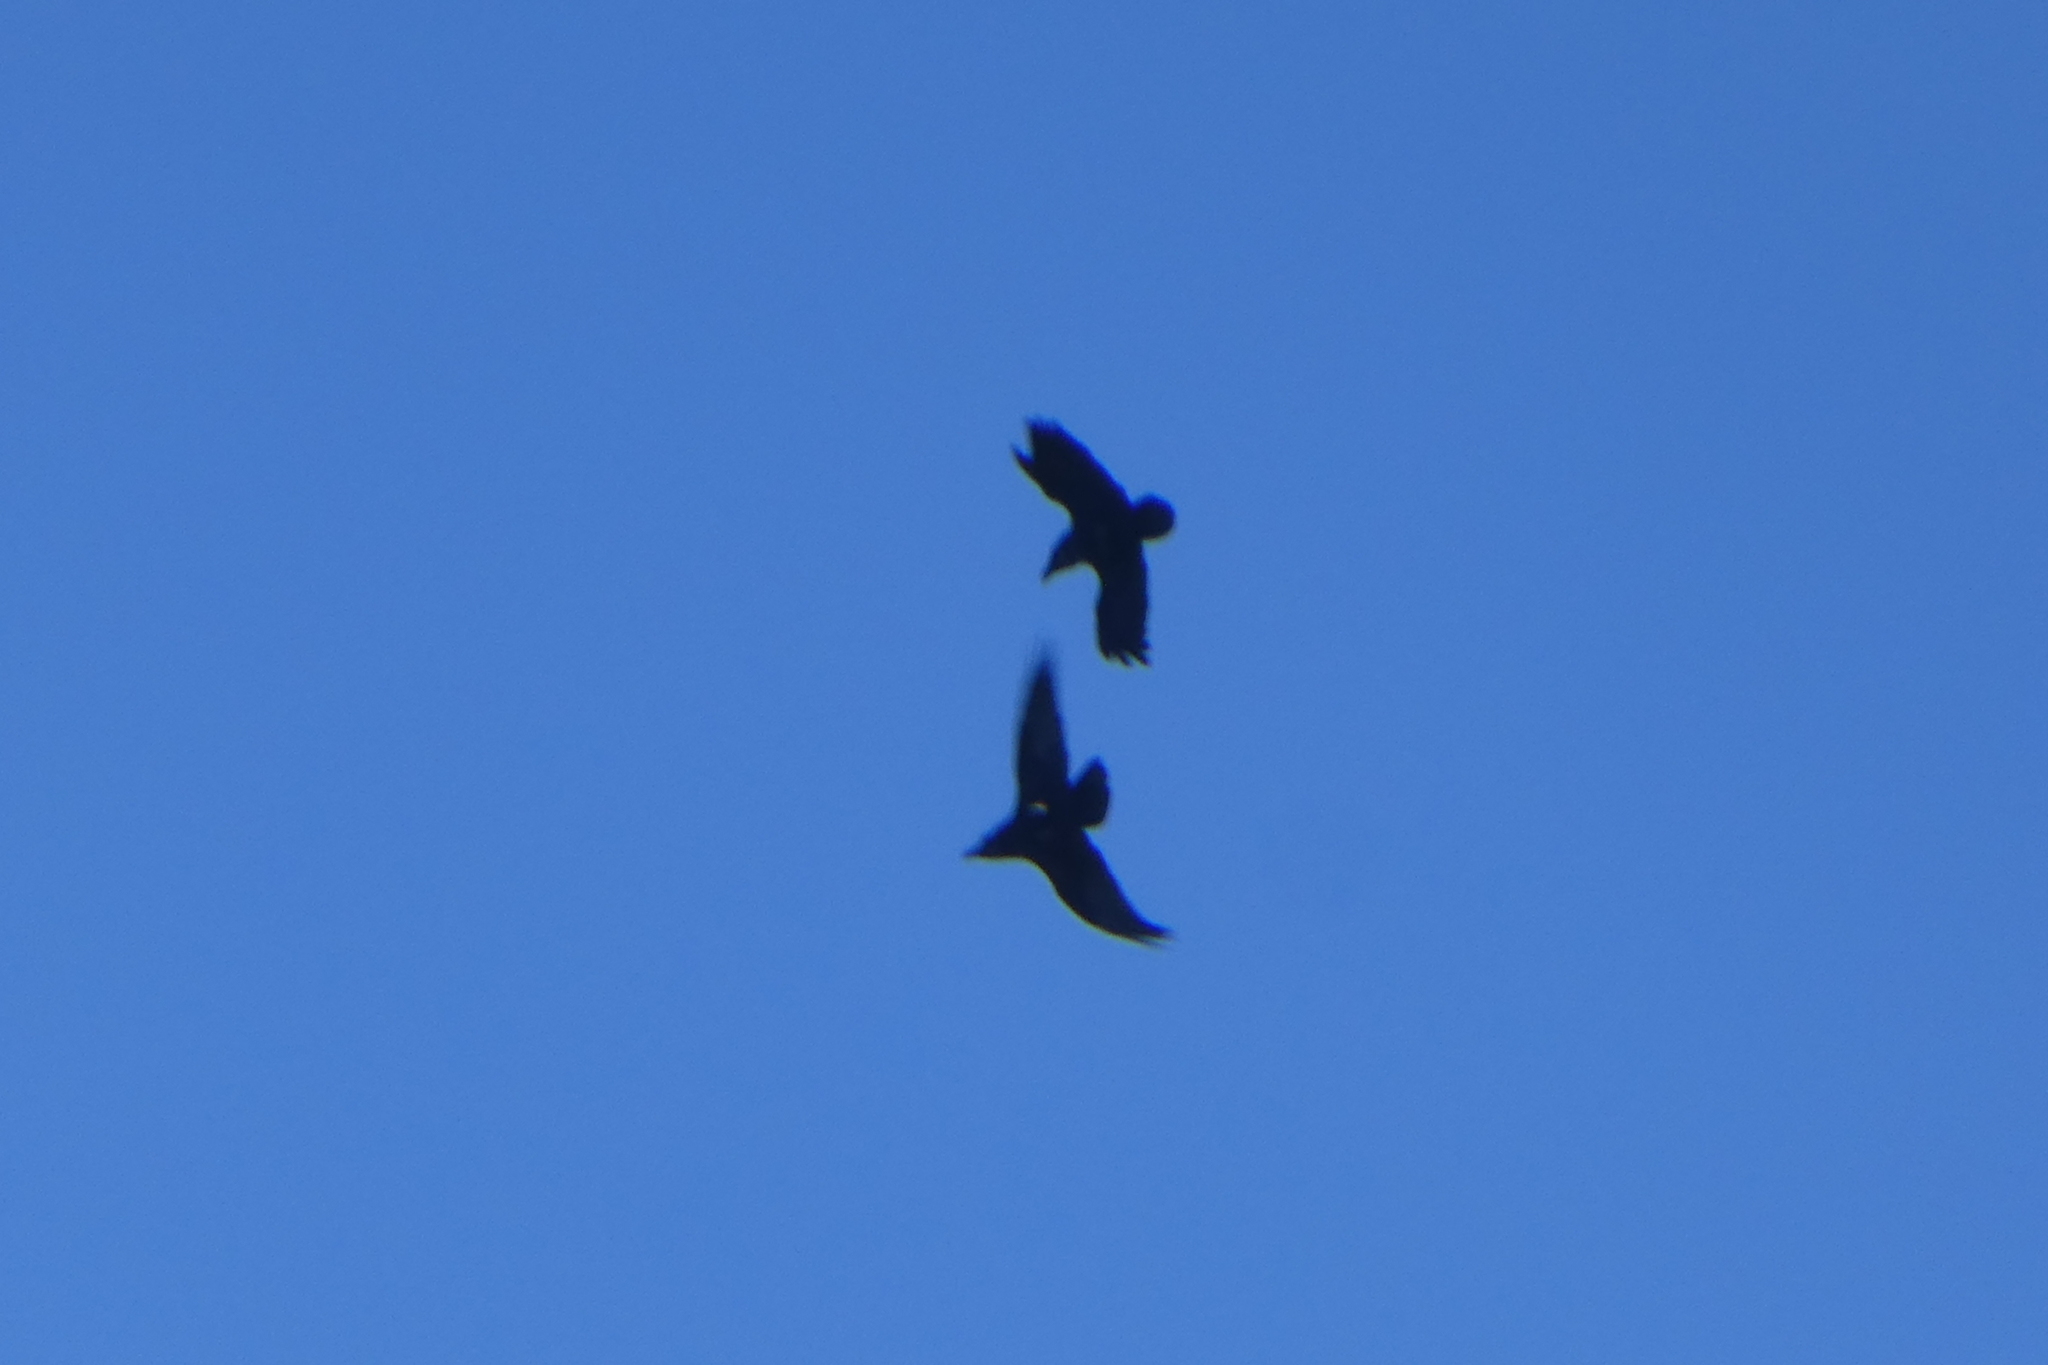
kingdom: Animalia
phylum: Chordata
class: Aves
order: Passeriformes
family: Corvidae
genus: Corvus
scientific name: Corvus corax
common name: Common raven
